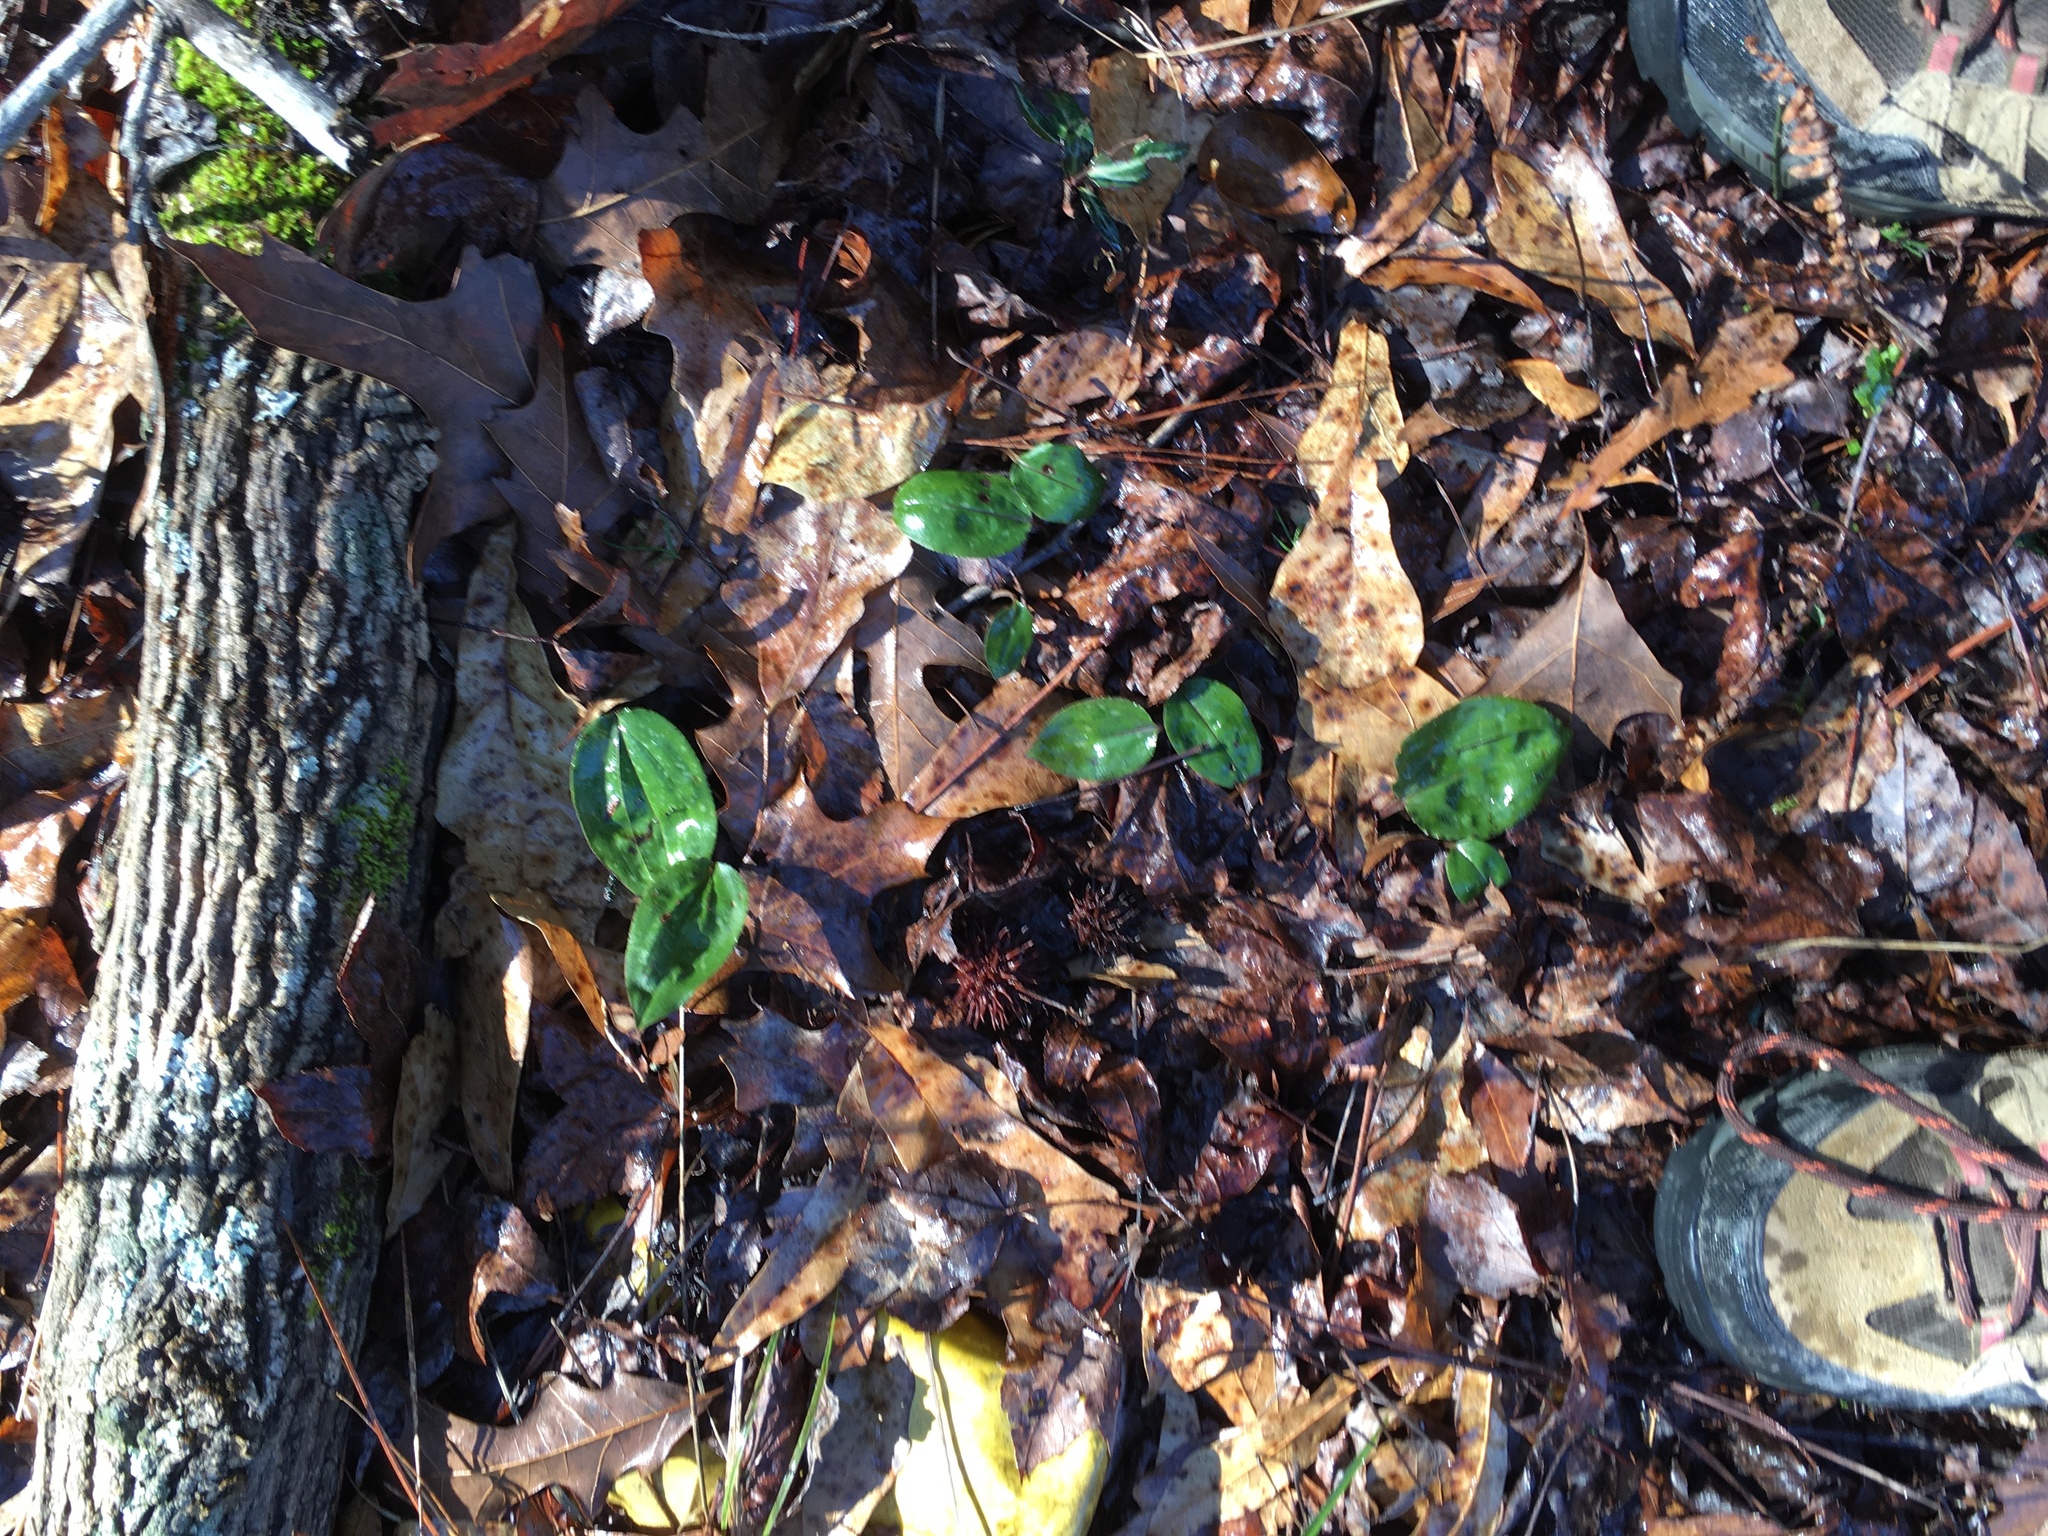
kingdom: Plantae
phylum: Tracheophyta
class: Liliopsida
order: Asparagales
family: Orchidaceae
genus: Tipularia
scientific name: Tipularia discolor
